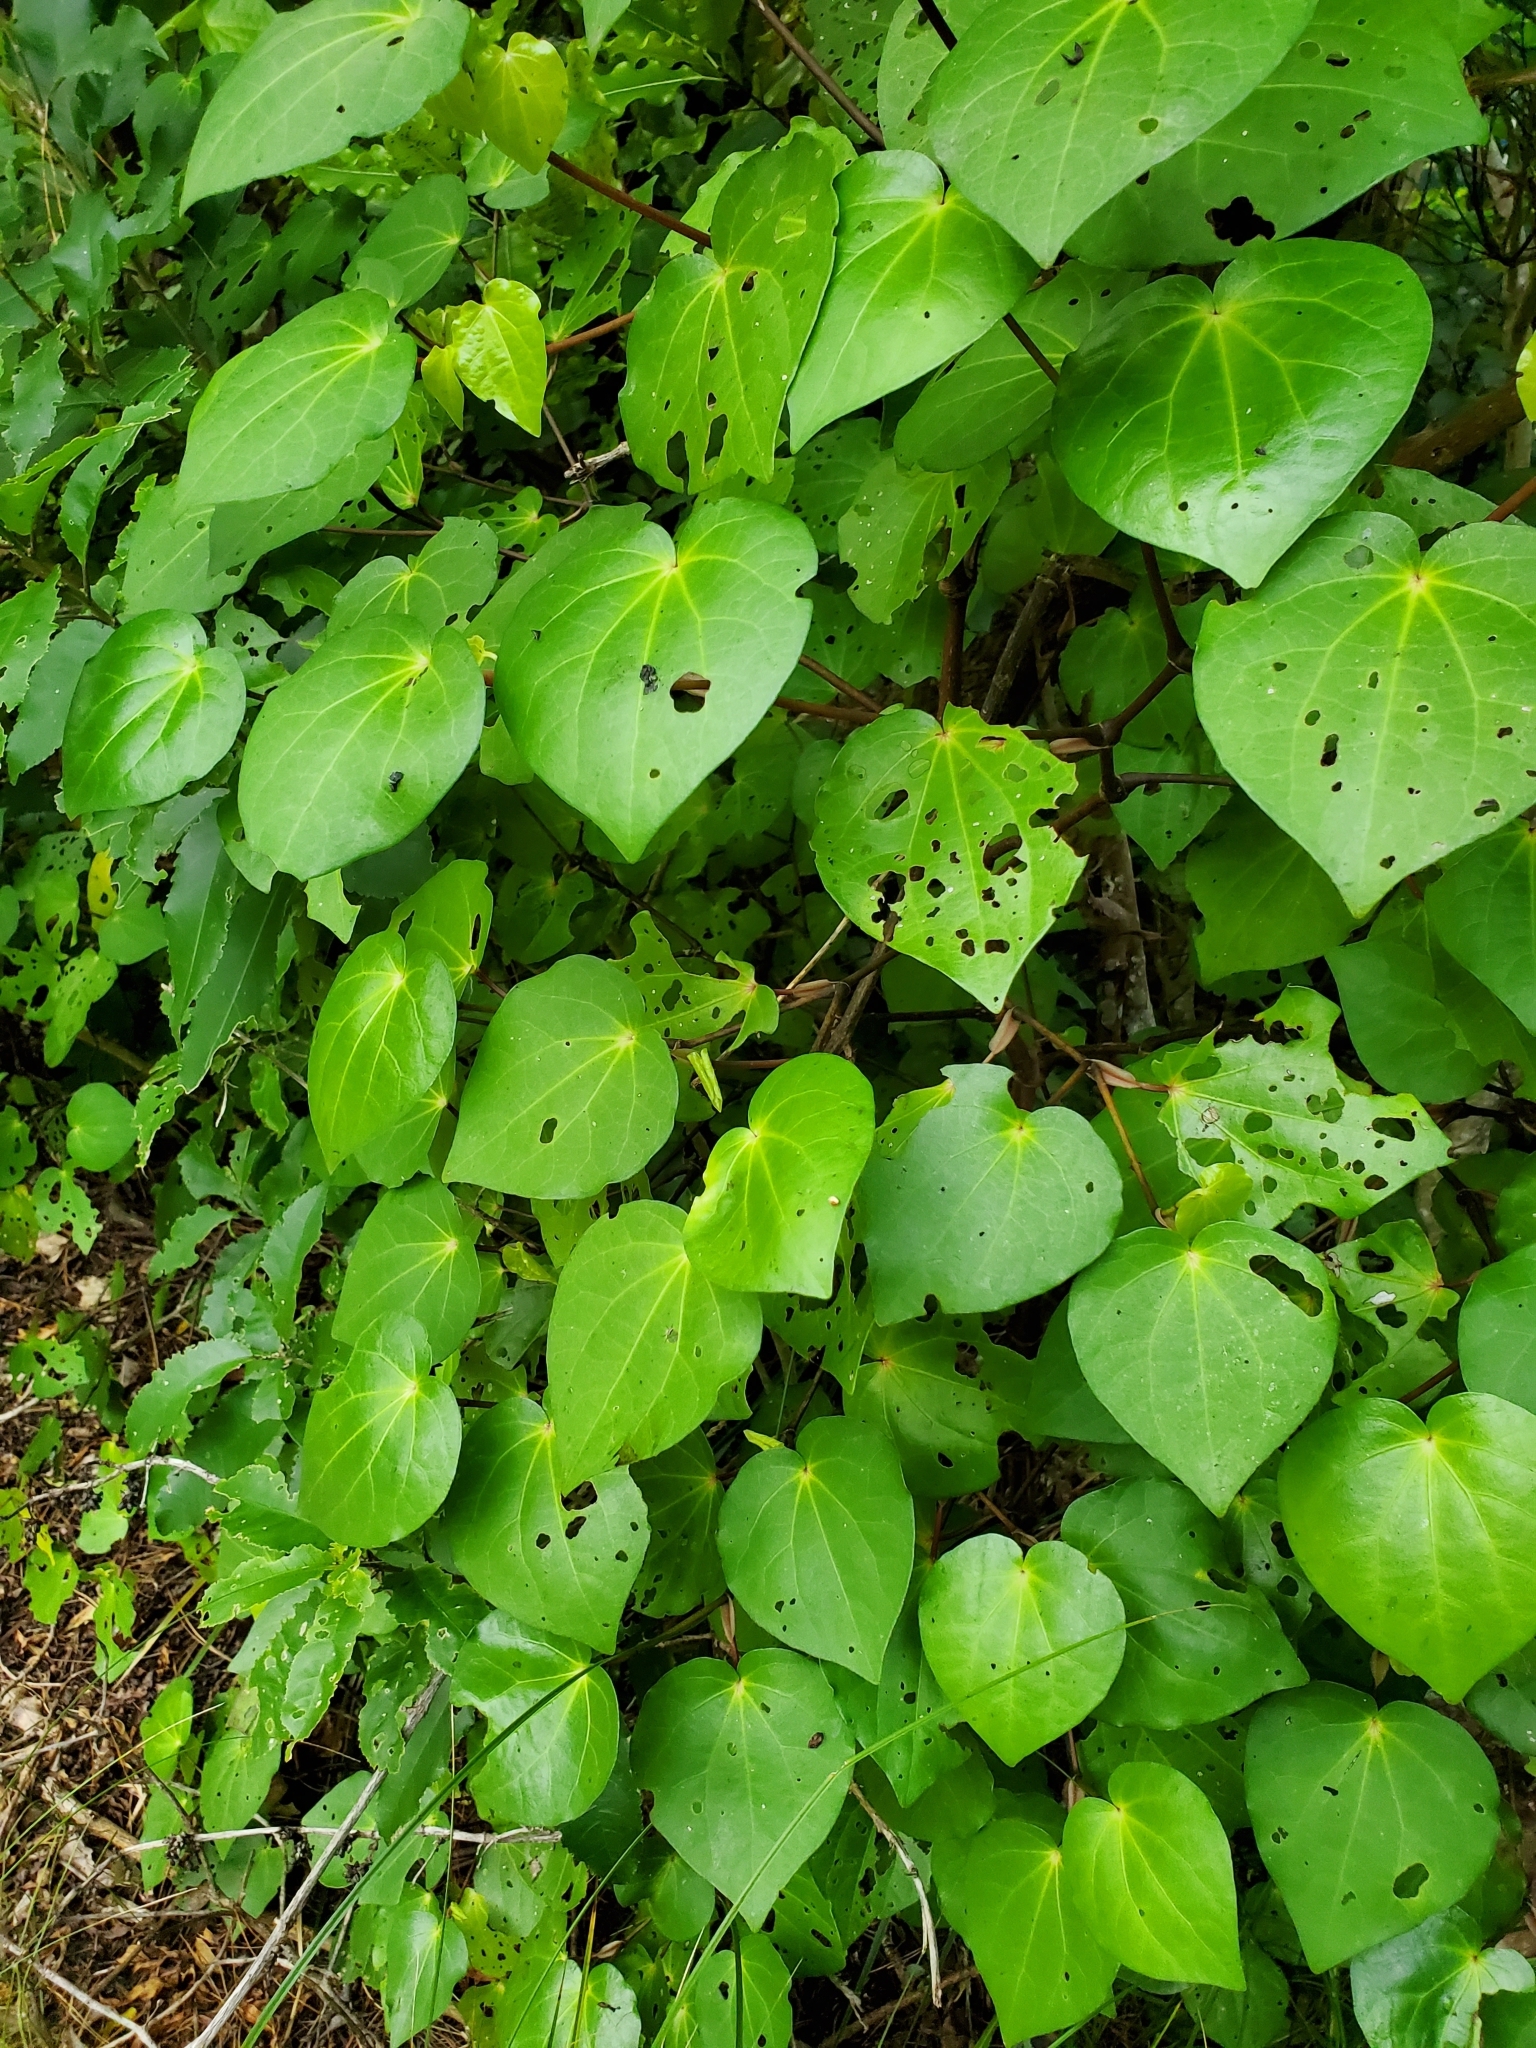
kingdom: Plantae
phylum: Tracheophyta
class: Magnoliopsida
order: Piperales
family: Piperaceae
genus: Macropiper
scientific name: Macropiper excelsum
